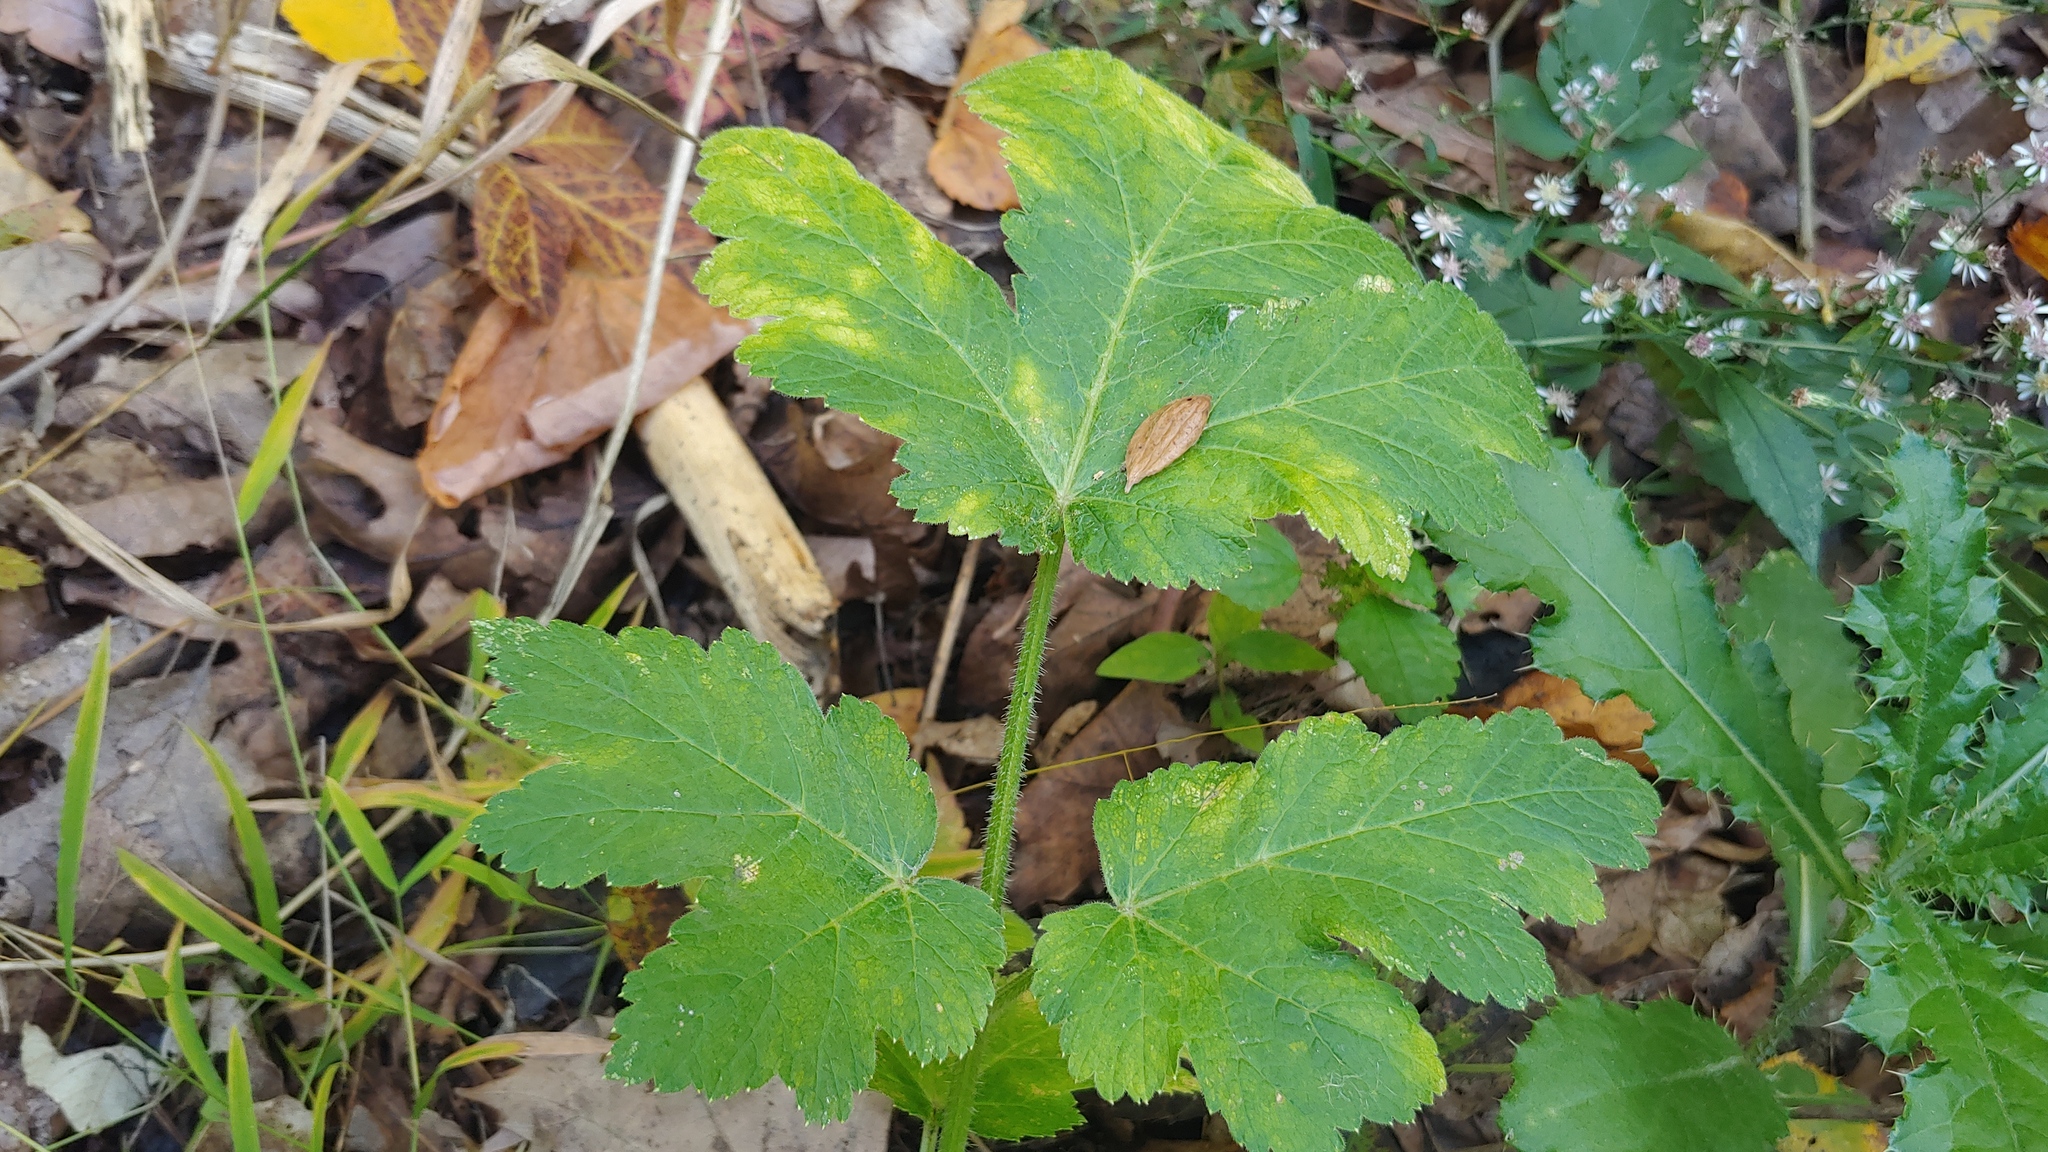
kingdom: Plantae
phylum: Tracheophyta
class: Magnoliopsida
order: Apiales
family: Apiaceae
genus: Heracleum
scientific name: Heracleum maximum
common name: American cow parsnip
